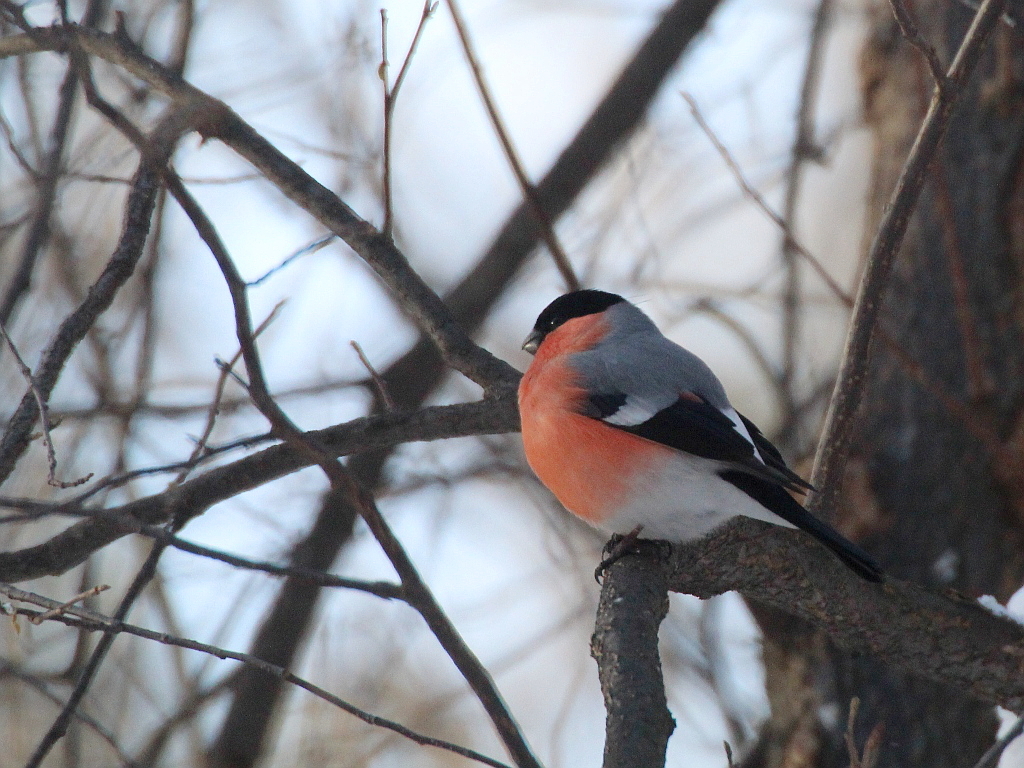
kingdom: Animalia
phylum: Chordata
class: Aves
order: Passeriformes
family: Fringillidae
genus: Pyrrhula
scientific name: Pyrrhula pyrrhula
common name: Eurasian bullfinch
